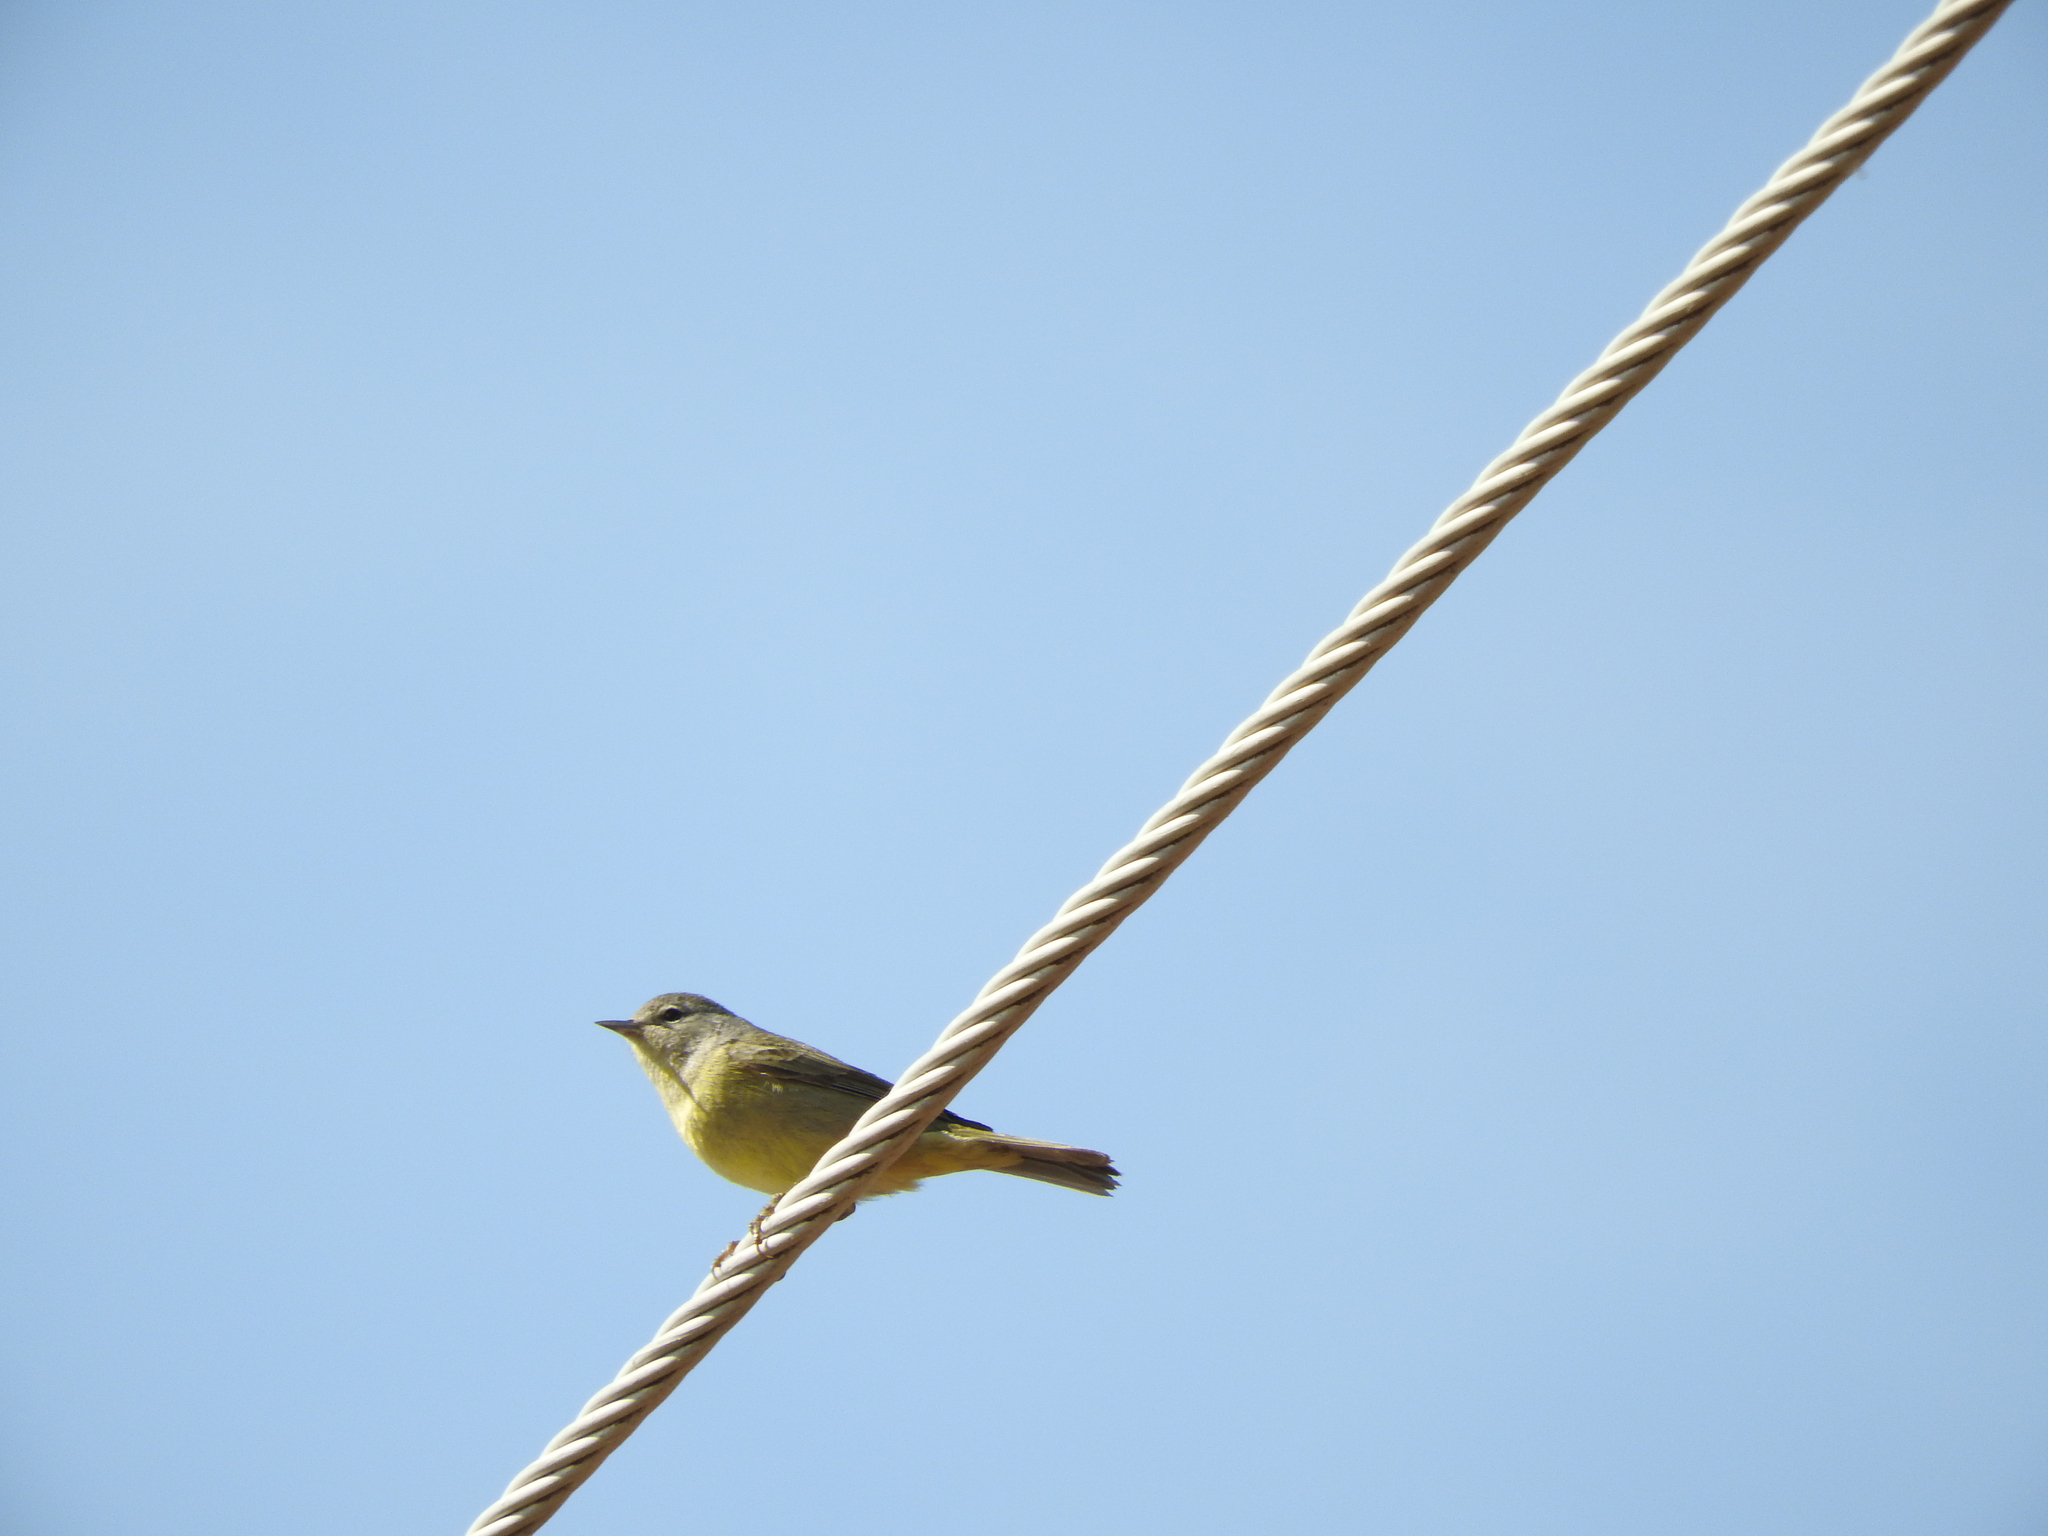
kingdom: Animalia
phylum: Chordata
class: Aves
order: Passeriformes
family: Parulidae
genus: Leiothlypis
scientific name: Leiothlypis celata
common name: Orange-crowned warbler
